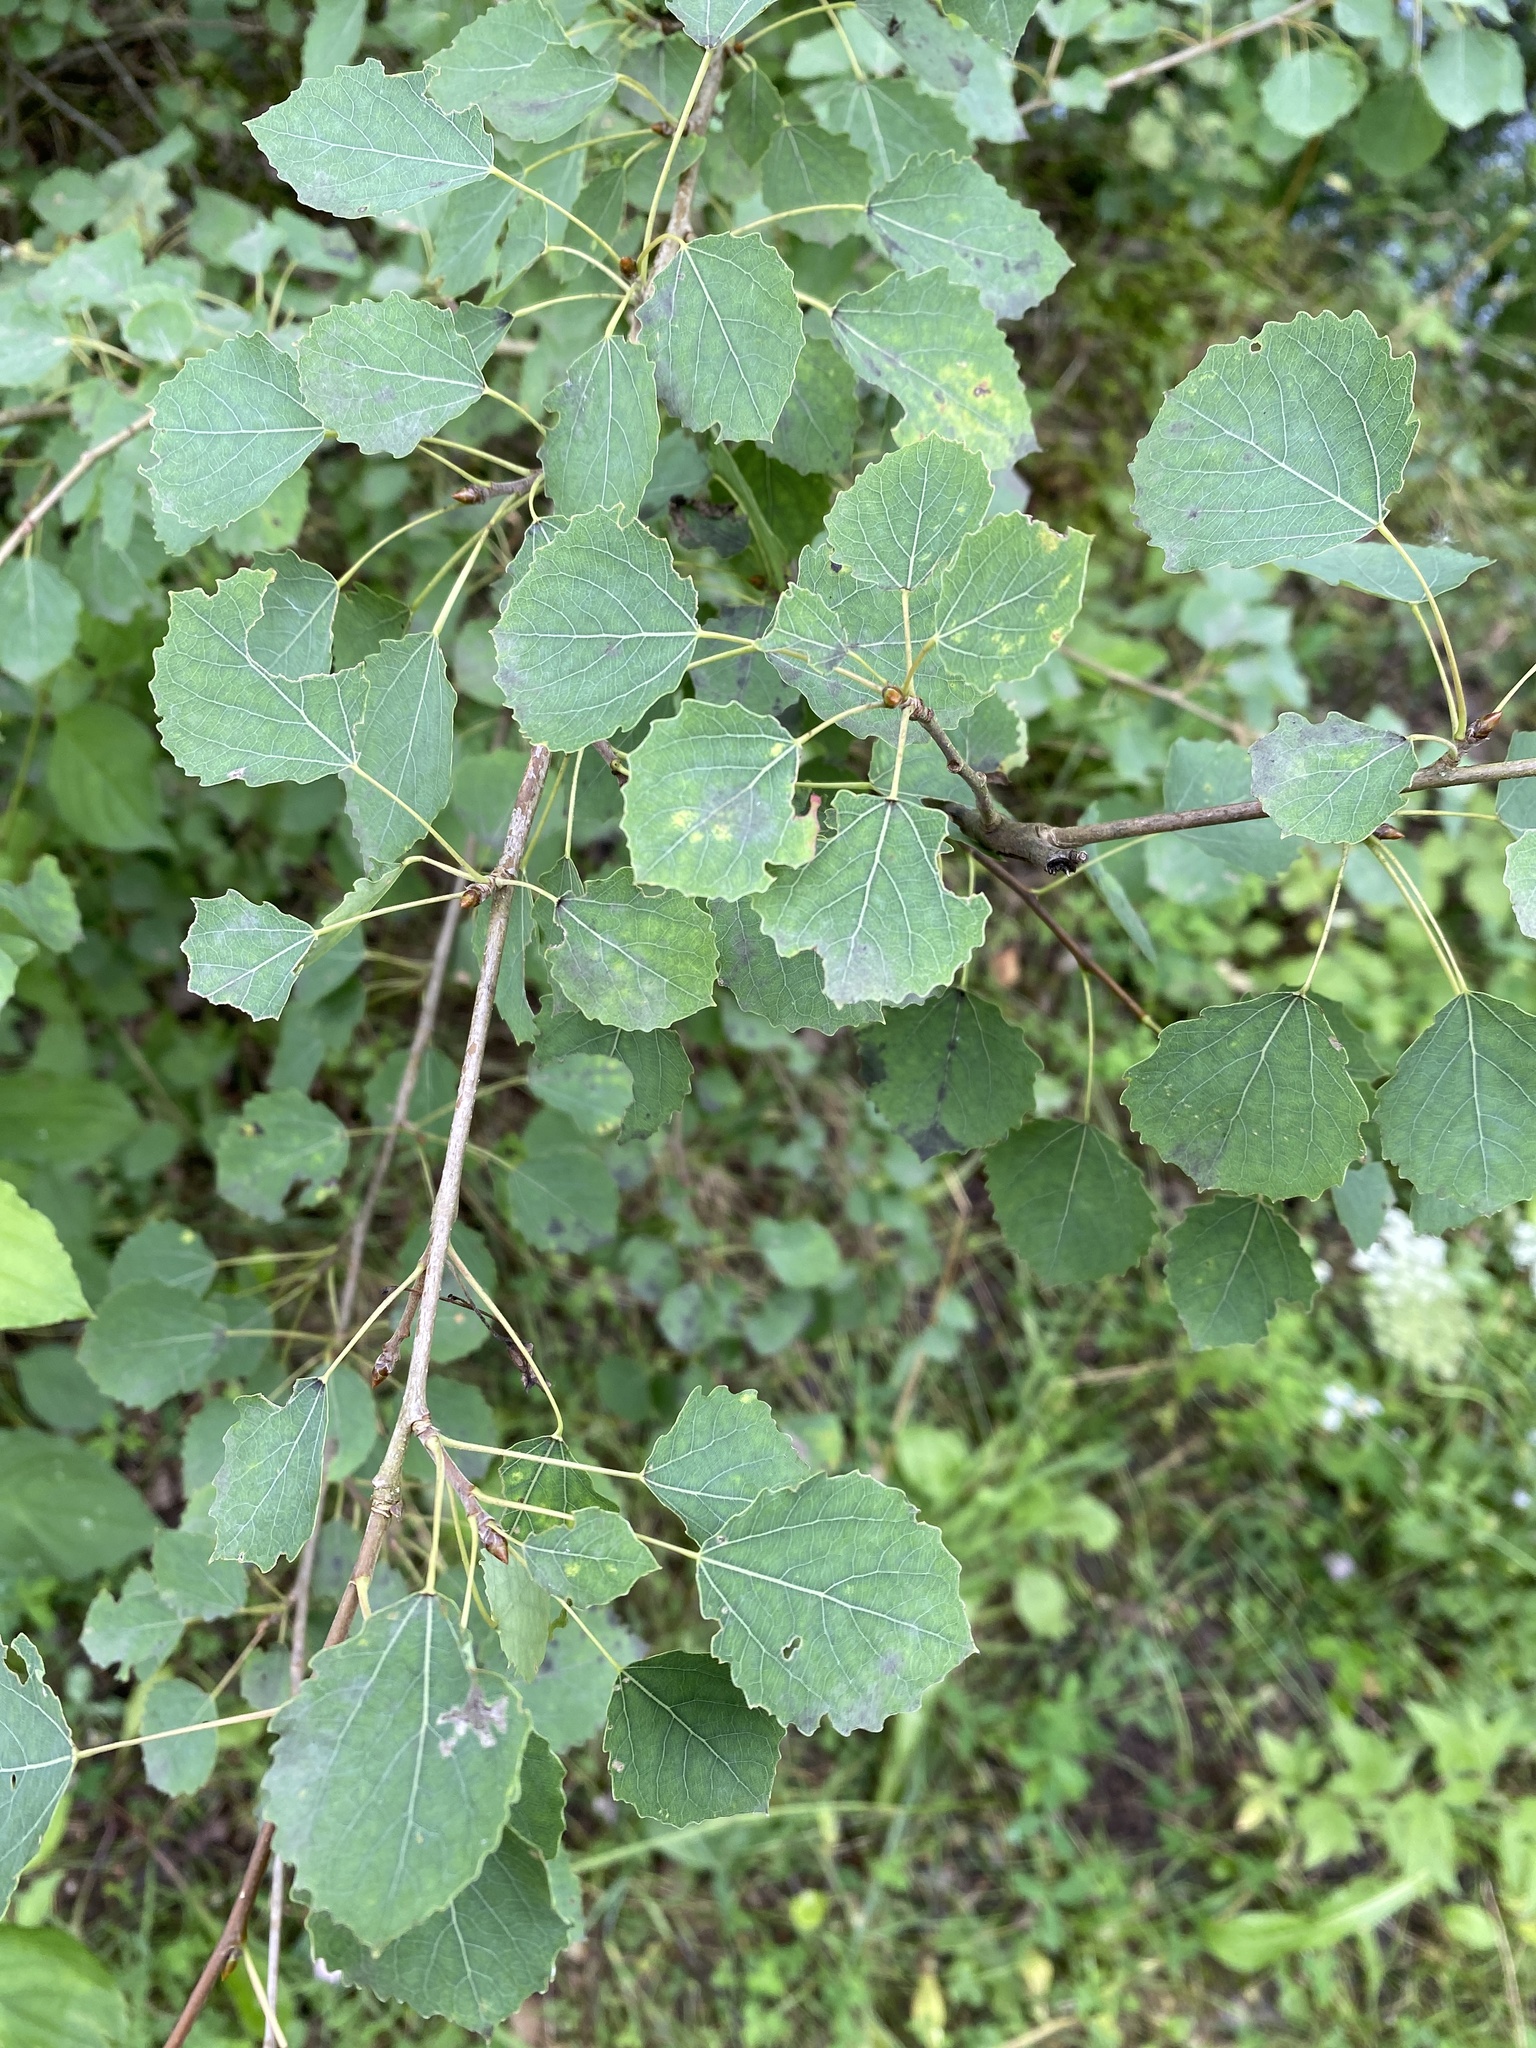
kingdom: Plantae
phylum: Tracheophyta
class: Magnoliopsida
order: Malpighiales
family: Salicaceae
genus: Populus
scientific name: Populus tremula
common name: European aspen
